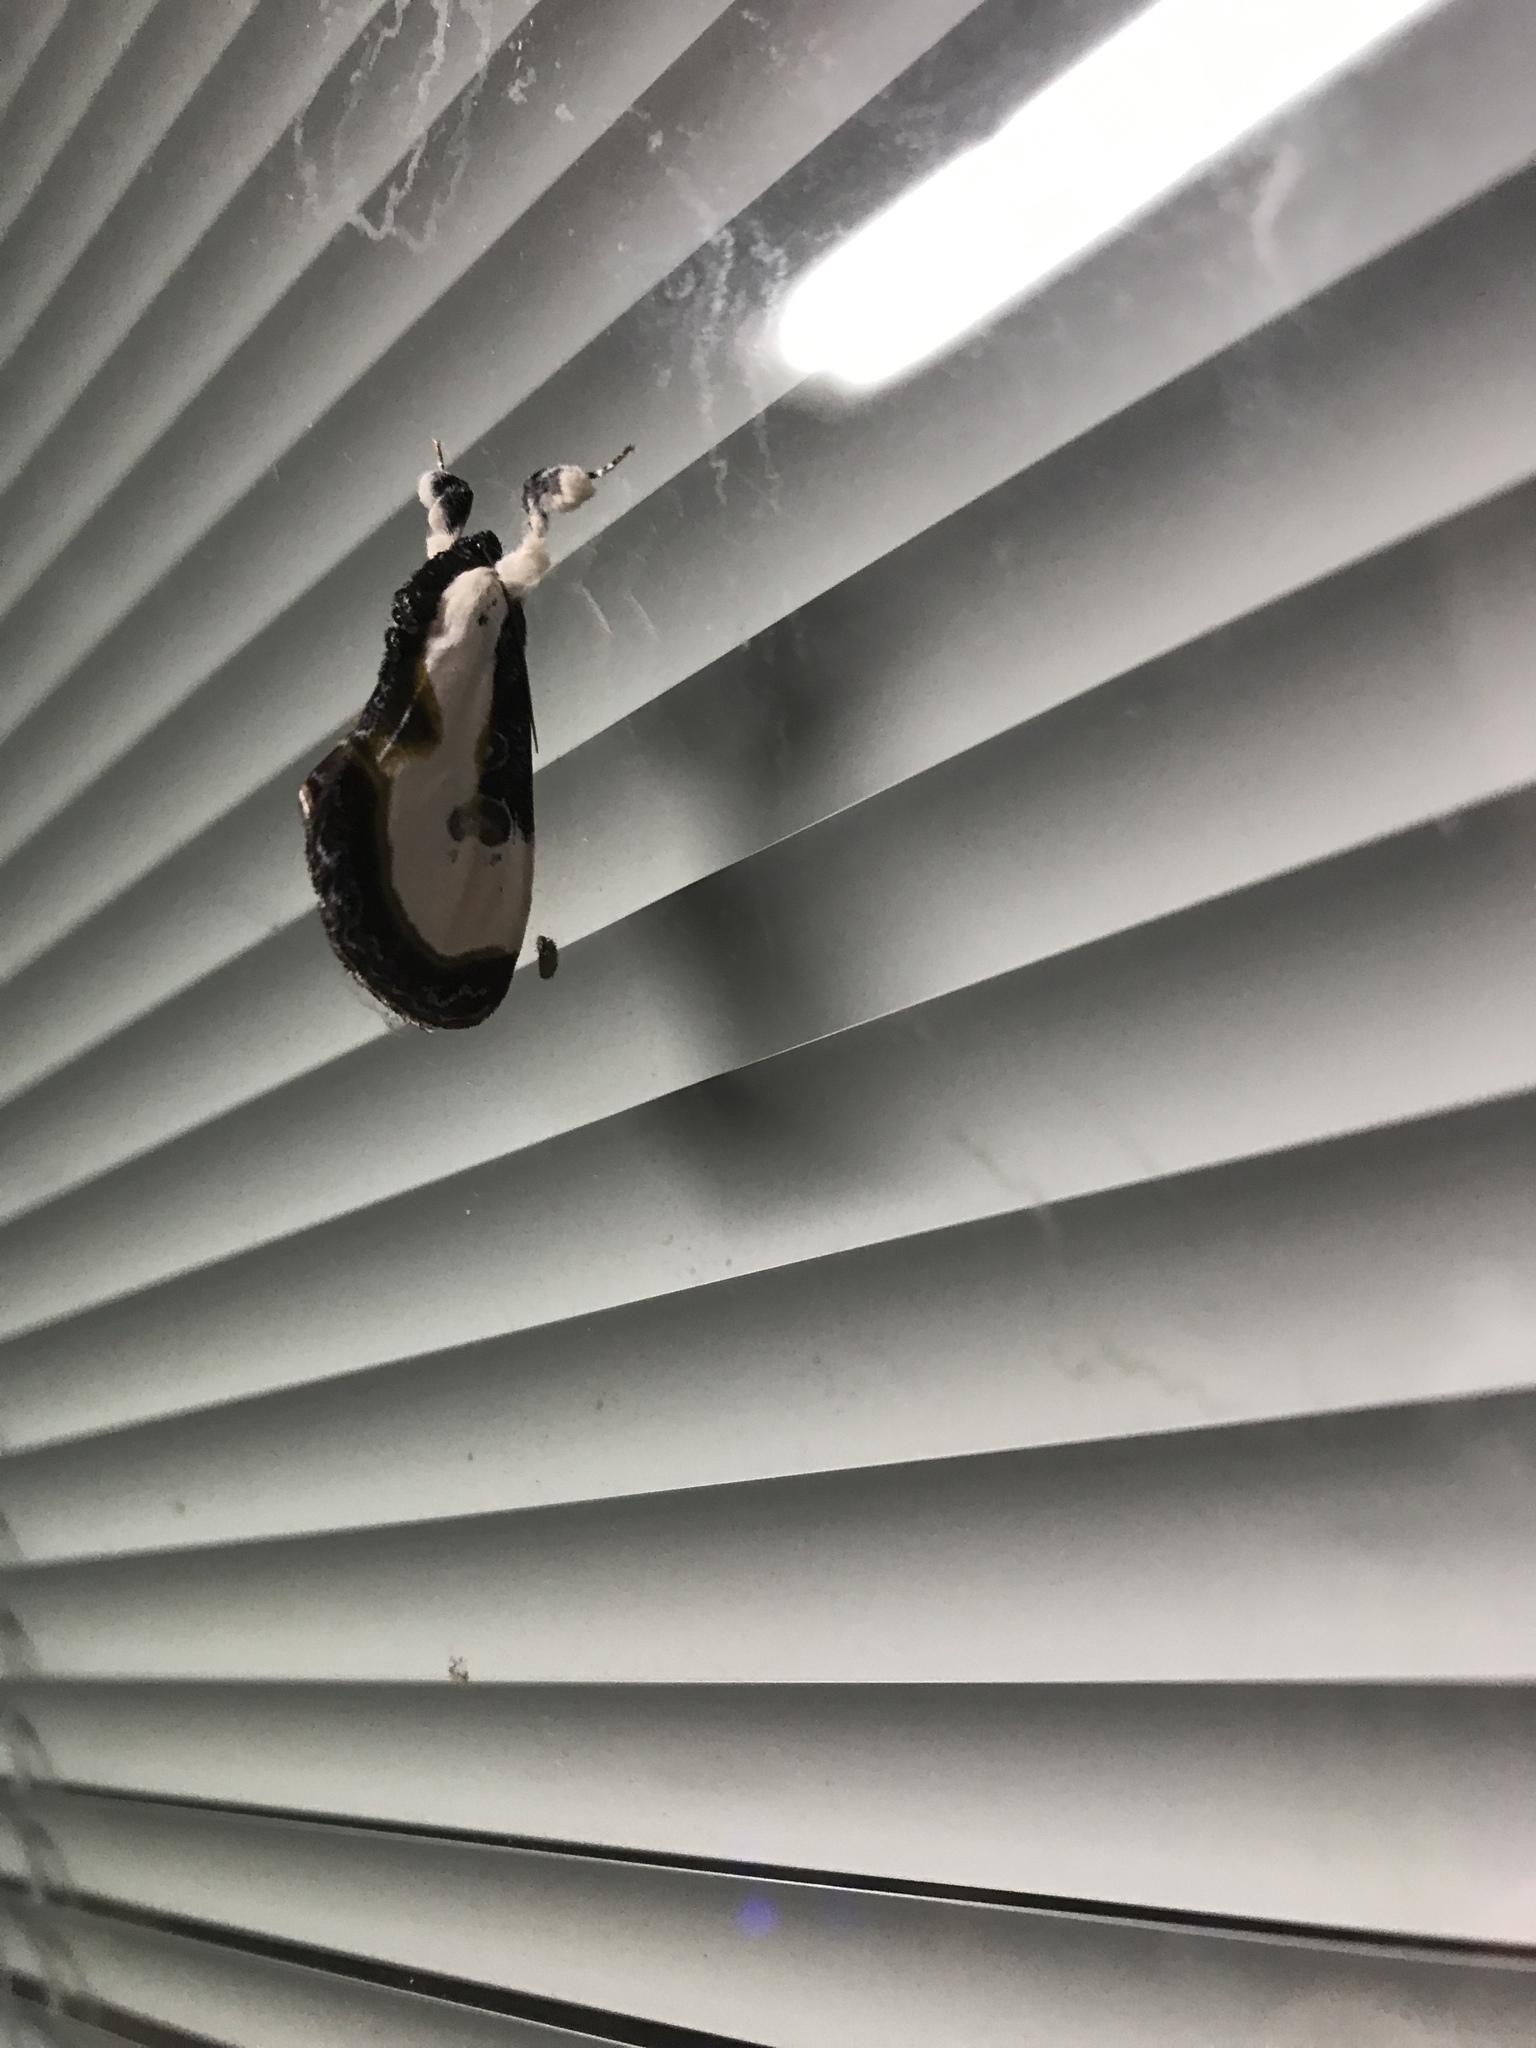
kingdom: Animalia
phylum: Arthropoda
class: Insecta
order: Lepidoptera
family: Noctuidae
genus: Eudryas
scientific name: Eudryas grata
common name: Beautiful wood-nymph
